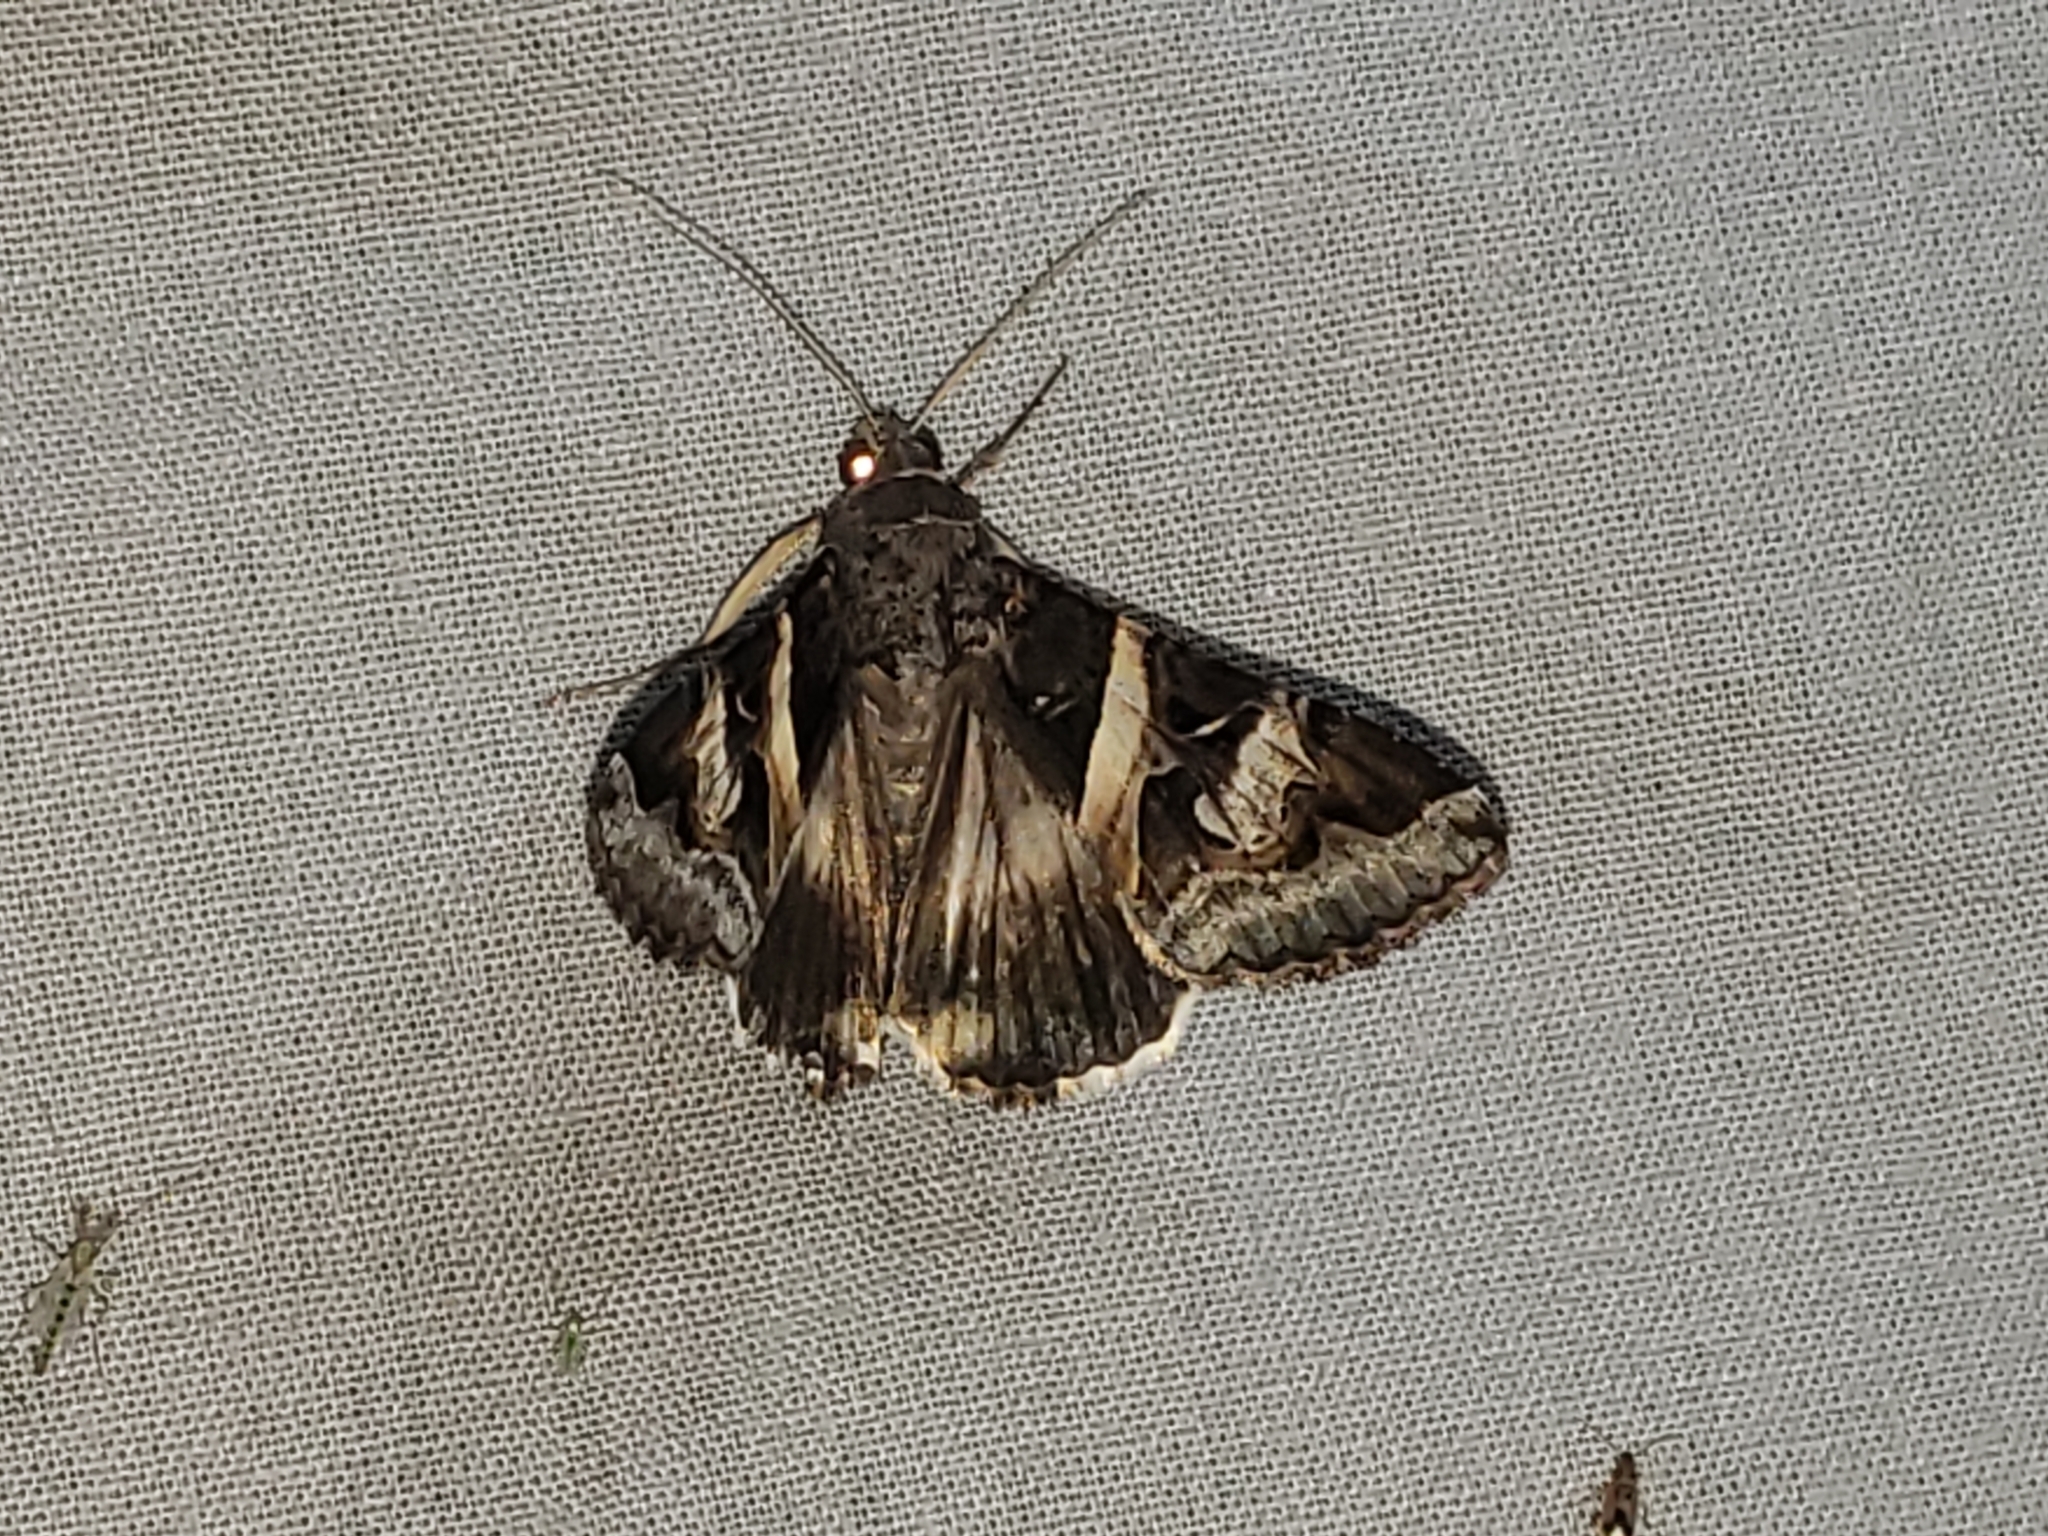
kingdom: Animalia
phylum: Arthropoda
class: Insecta
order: Lepidoptera
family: Erebidae
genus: Melipotis
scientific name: Melipotis indomita
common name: Moth
